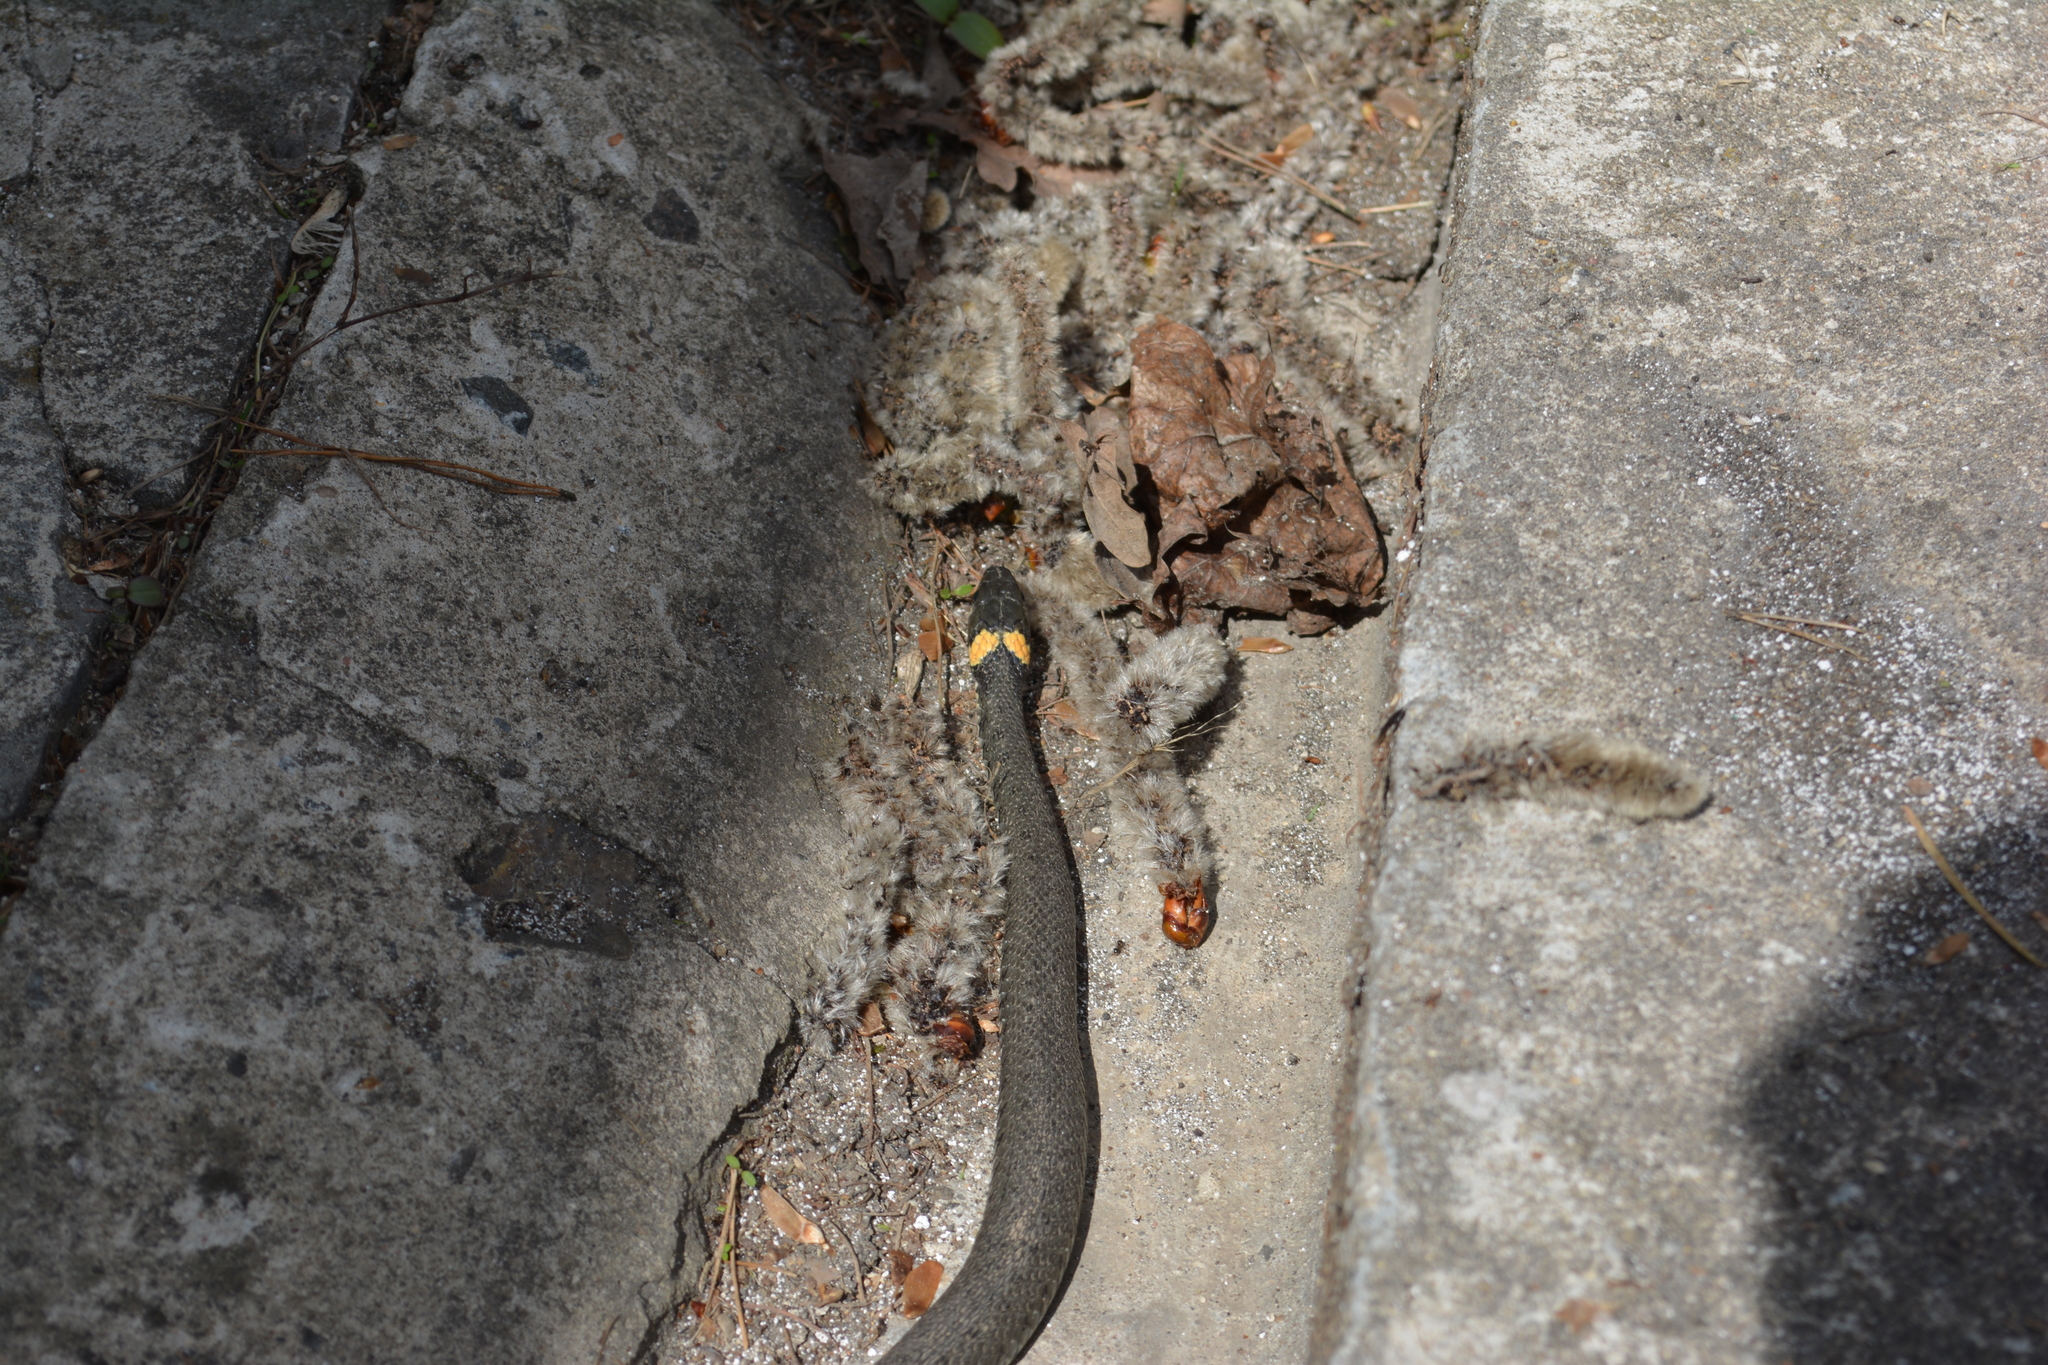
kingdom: Animalia
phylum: Chordata
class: Squamata
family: Colubridae
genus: Natrix
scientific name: Natrix natrix
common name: Grass snake
